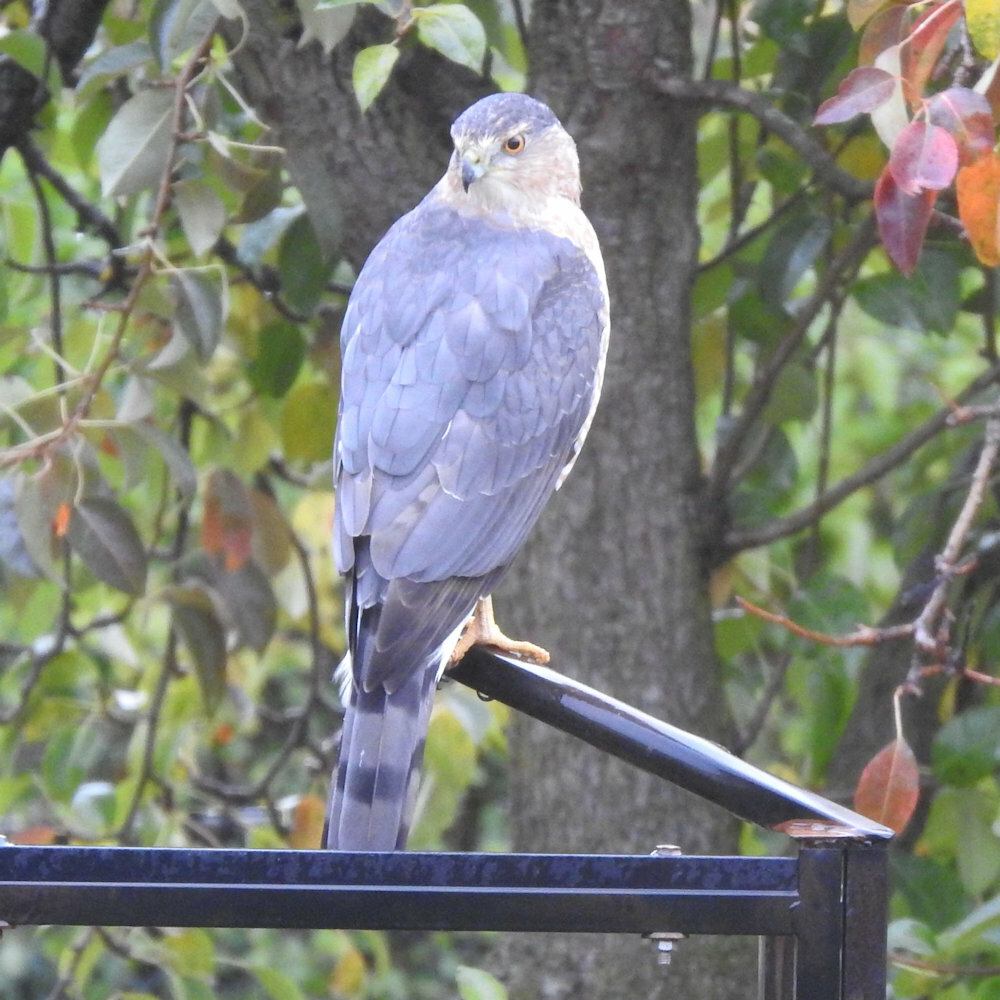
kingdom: Animalia
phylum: Chordata
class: Aves
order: Accipitriformes
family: Accipitridae
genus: Accipiter
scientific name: Accipiter cooperii
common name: Cooper's hawk
